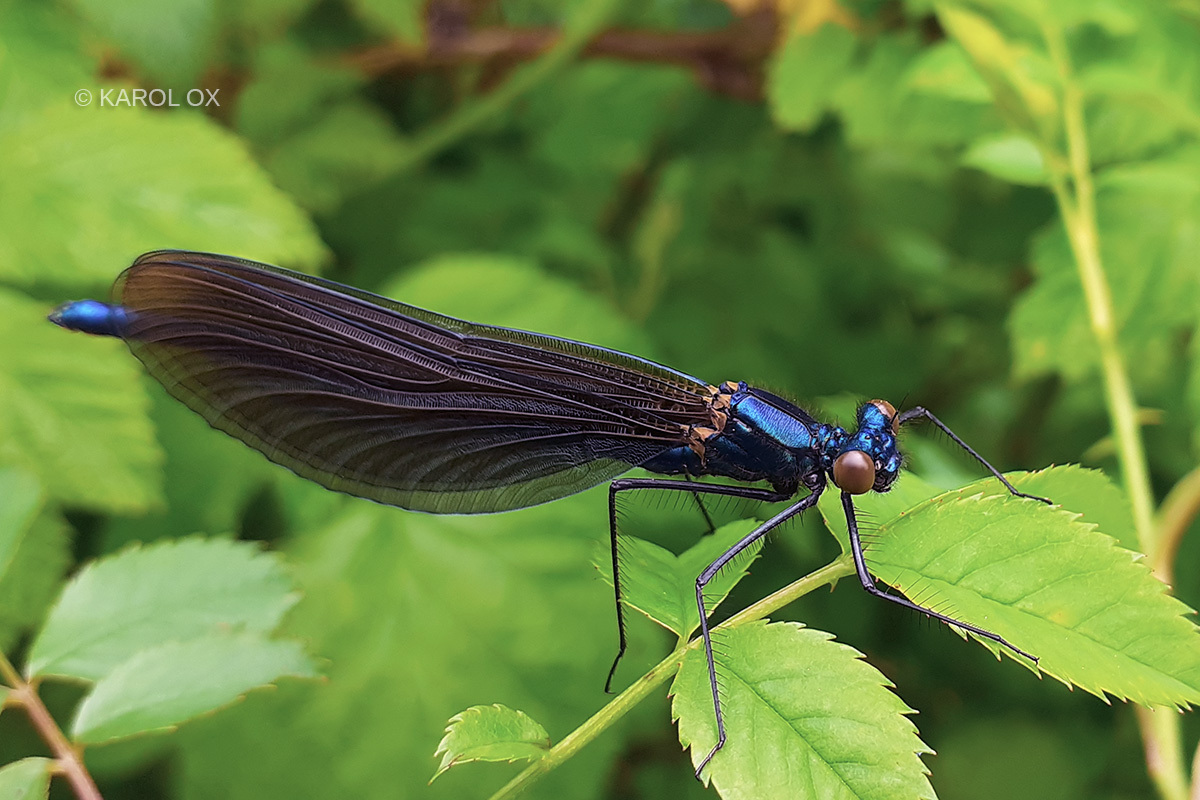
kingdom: Animalia
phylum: Arthropoda
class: Insecta
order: Odonata
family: Calopterygidae
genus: Calopteryx
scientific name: Calopteryx virgo
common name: Beautiful demoiselle
